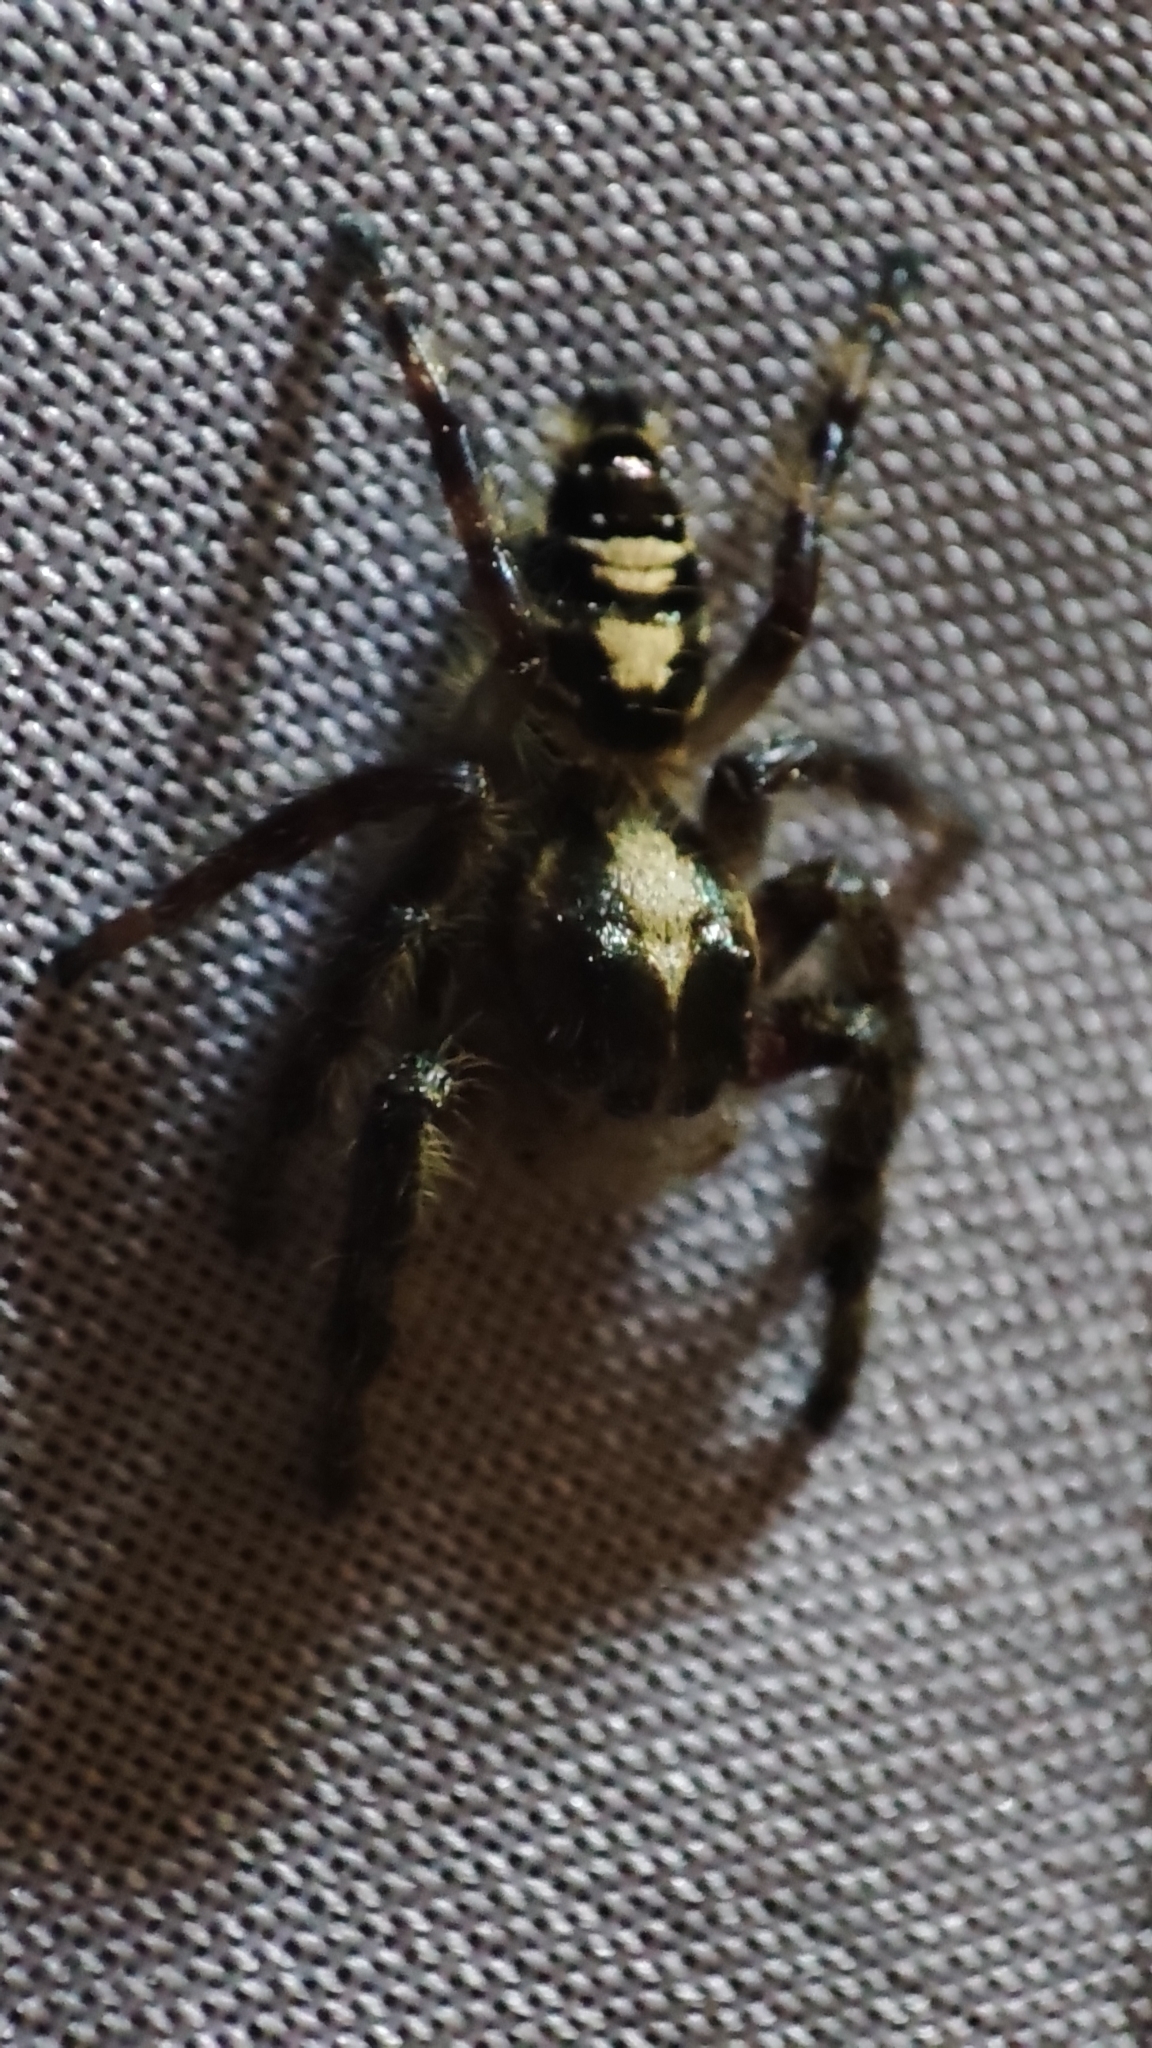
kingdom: Animalia
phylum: Arthropoda
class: Arachnida
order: Araneae
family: Salticidae
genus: Hyllus
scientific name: Hyllus diardi
